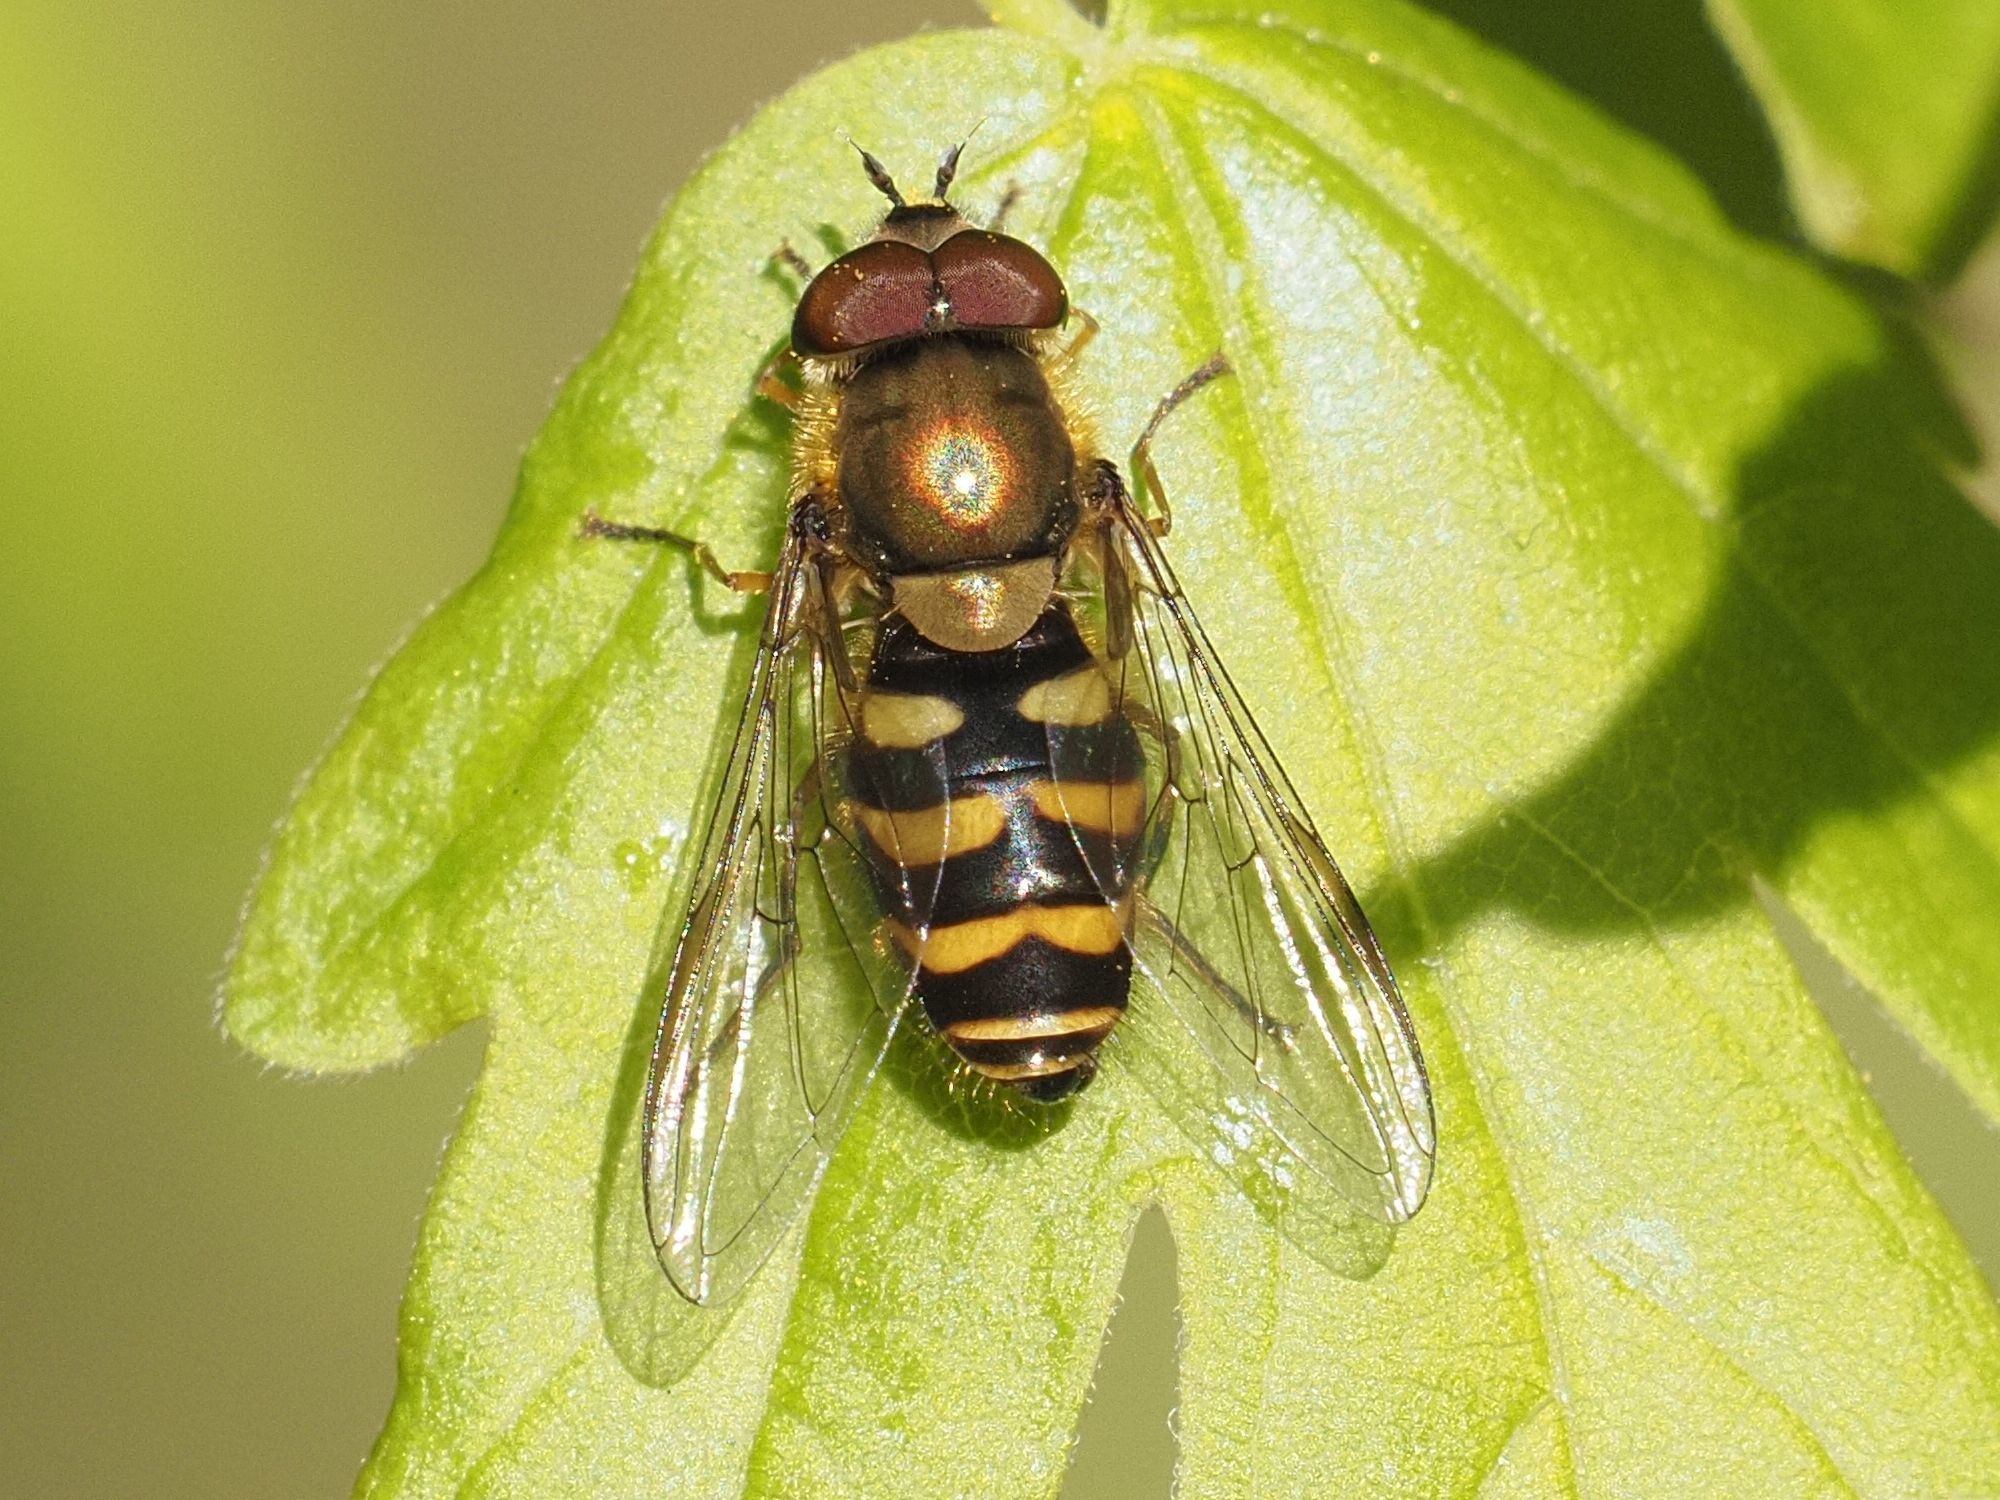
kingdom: Animalia
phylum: Arthropoda
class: Insecta
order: Diptera
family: Syrphidae
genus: Syrphus
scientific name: Syrphus torvus
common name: Hairy-eyed flower fly
